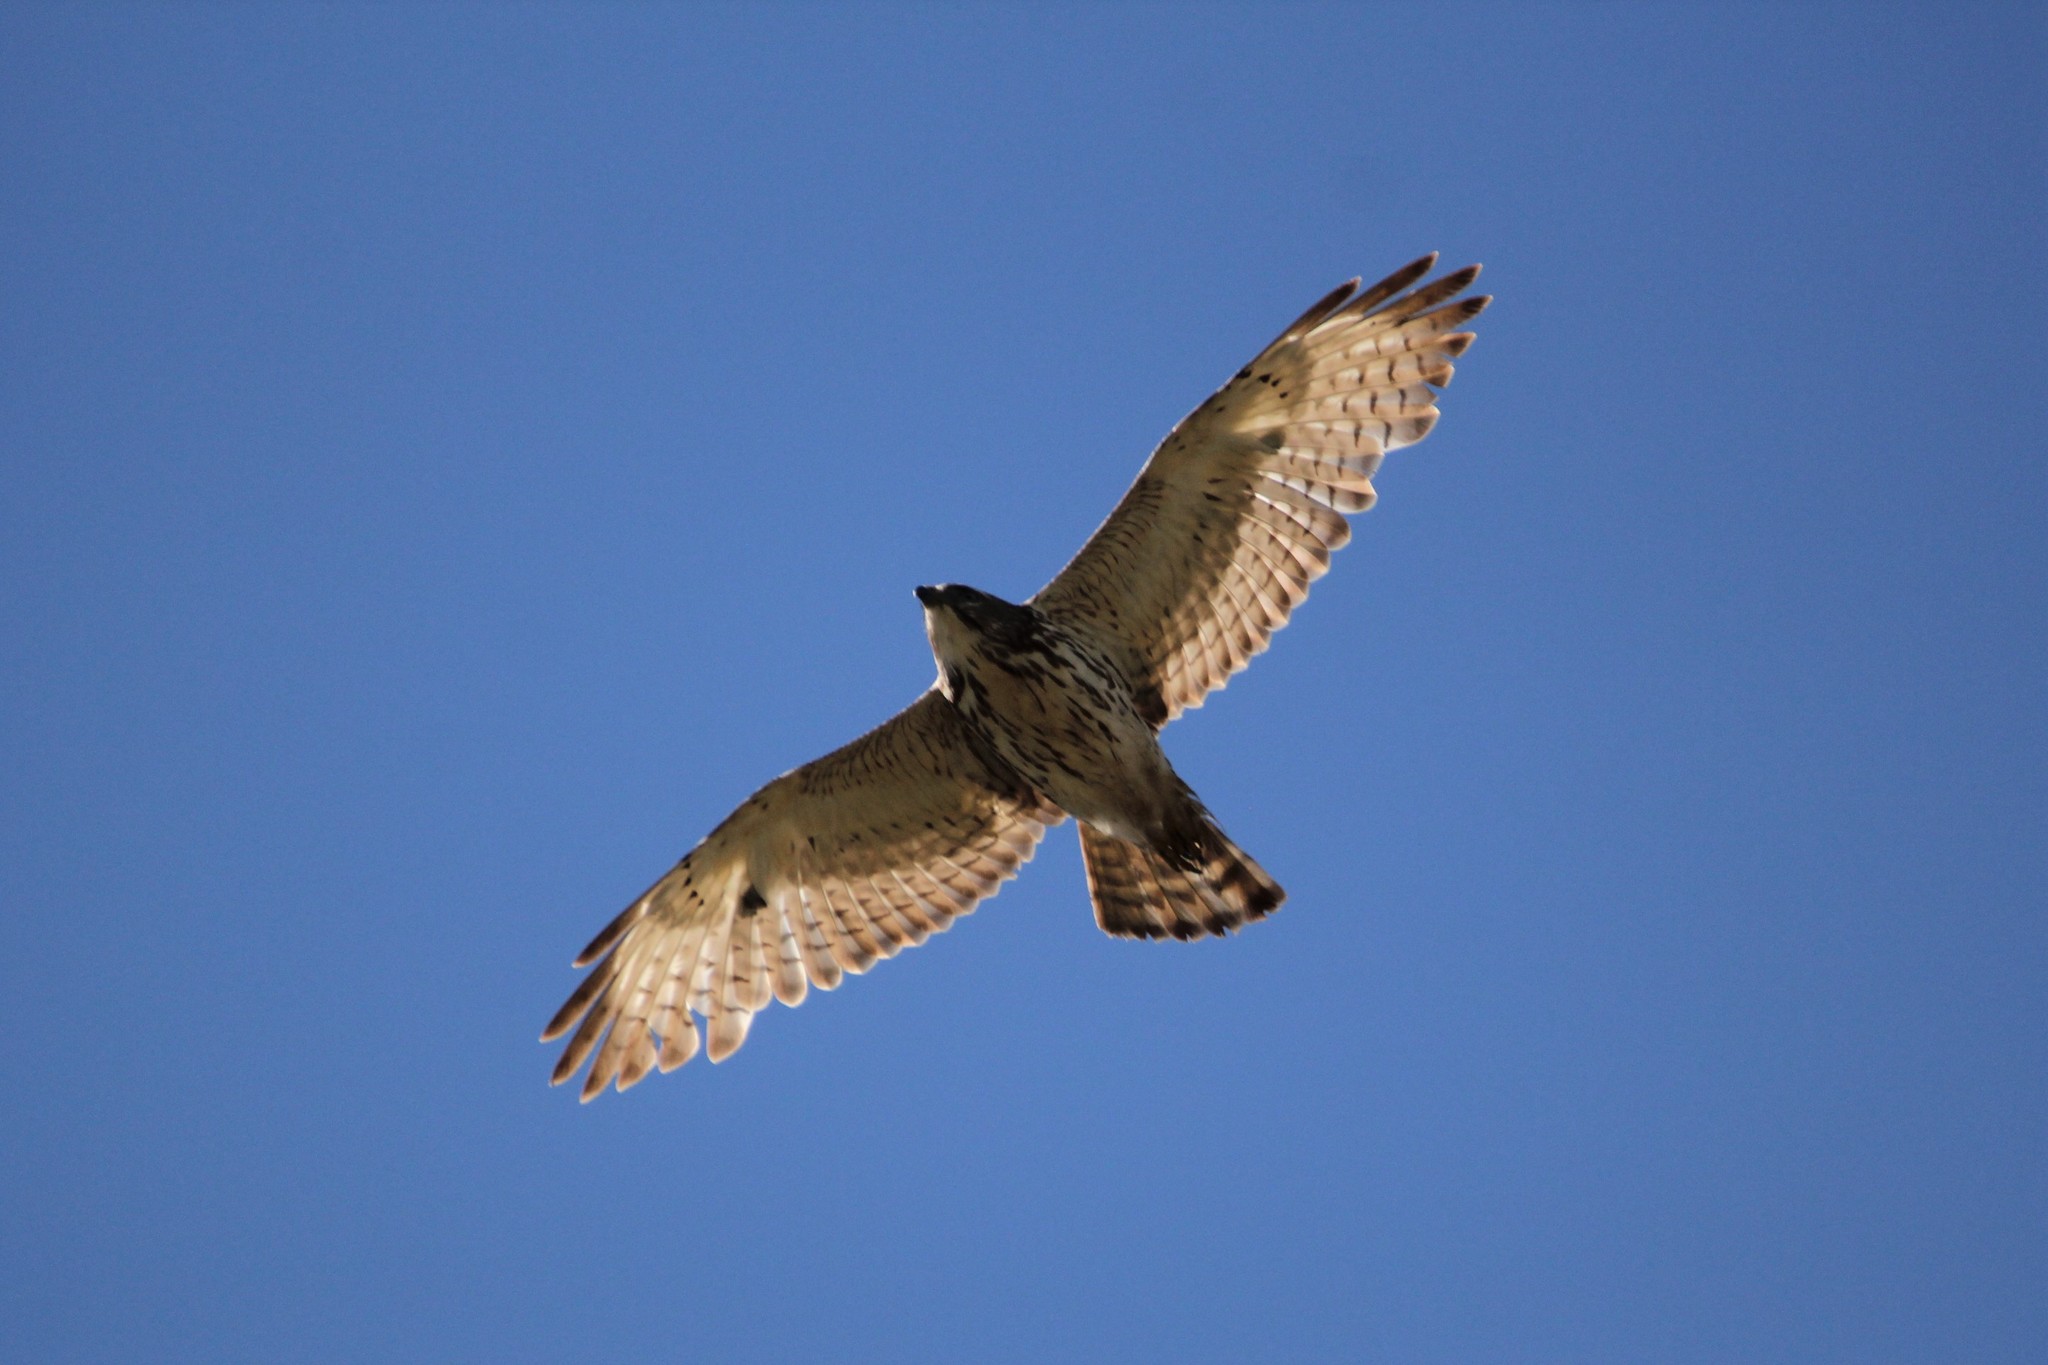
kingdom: Animalia
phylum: Chordata
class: Aves
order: Accipitriformes
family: Accipitridae
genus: Buteo
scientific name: Buteo platypterus
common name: Broad-winged hawk
